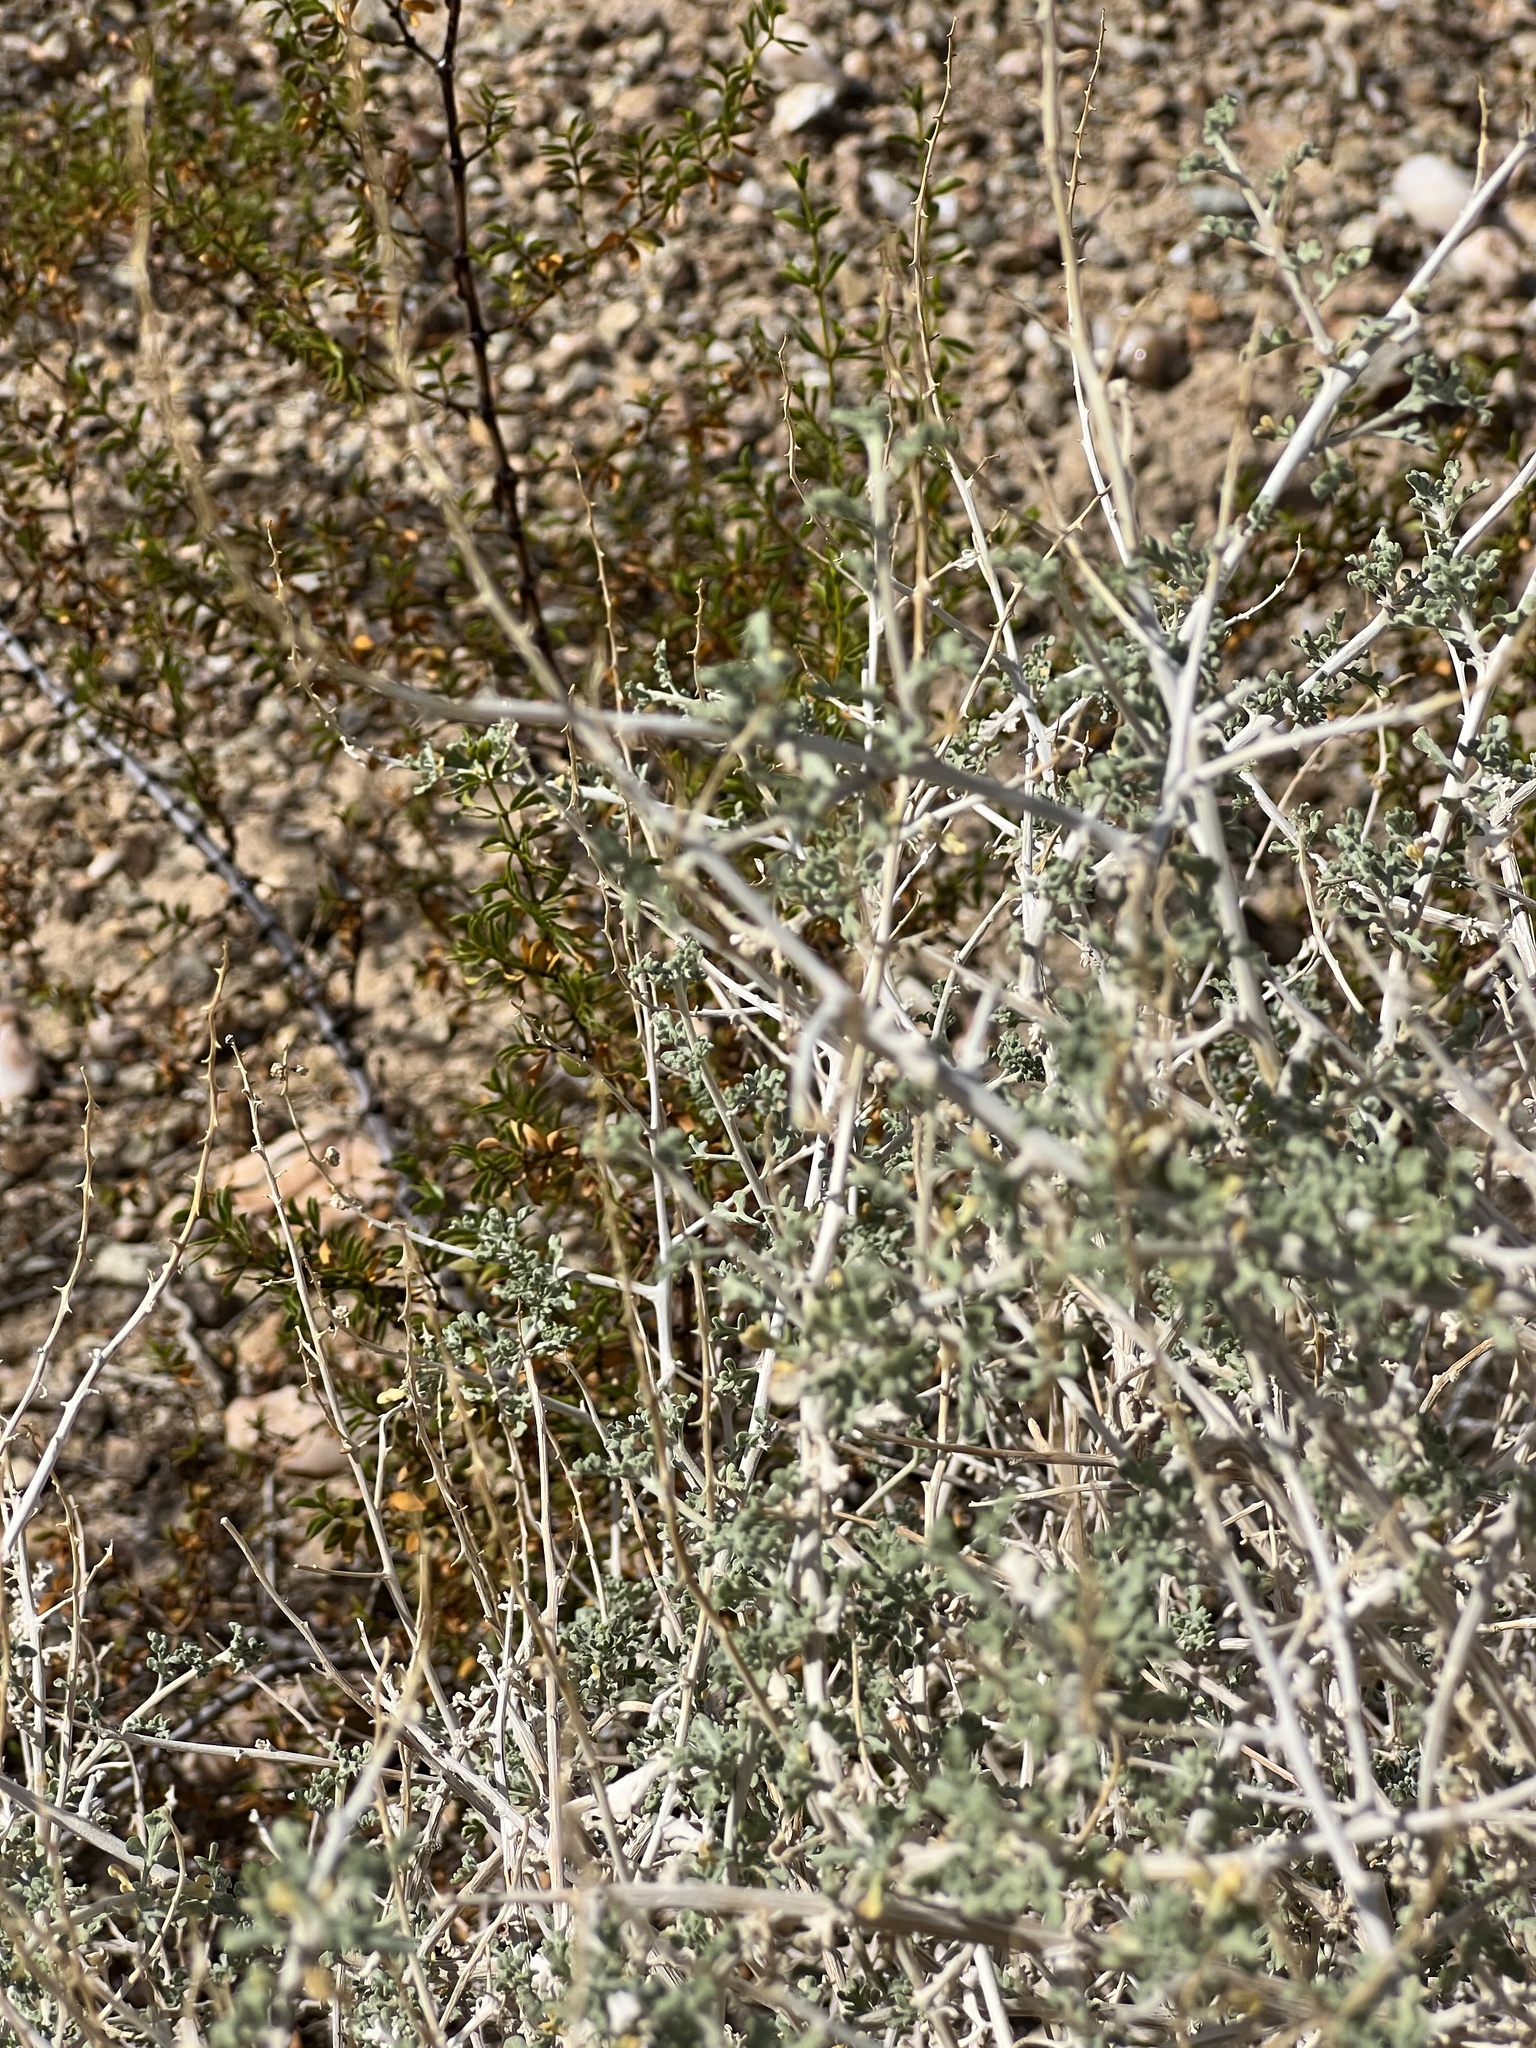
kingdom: Plantae
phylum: Tracheophyta
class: Magnoliopsida
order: Asterales
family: Asteraceae
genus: Ambrosia
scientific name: Ambrosia dumosa
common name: Bur-sage
